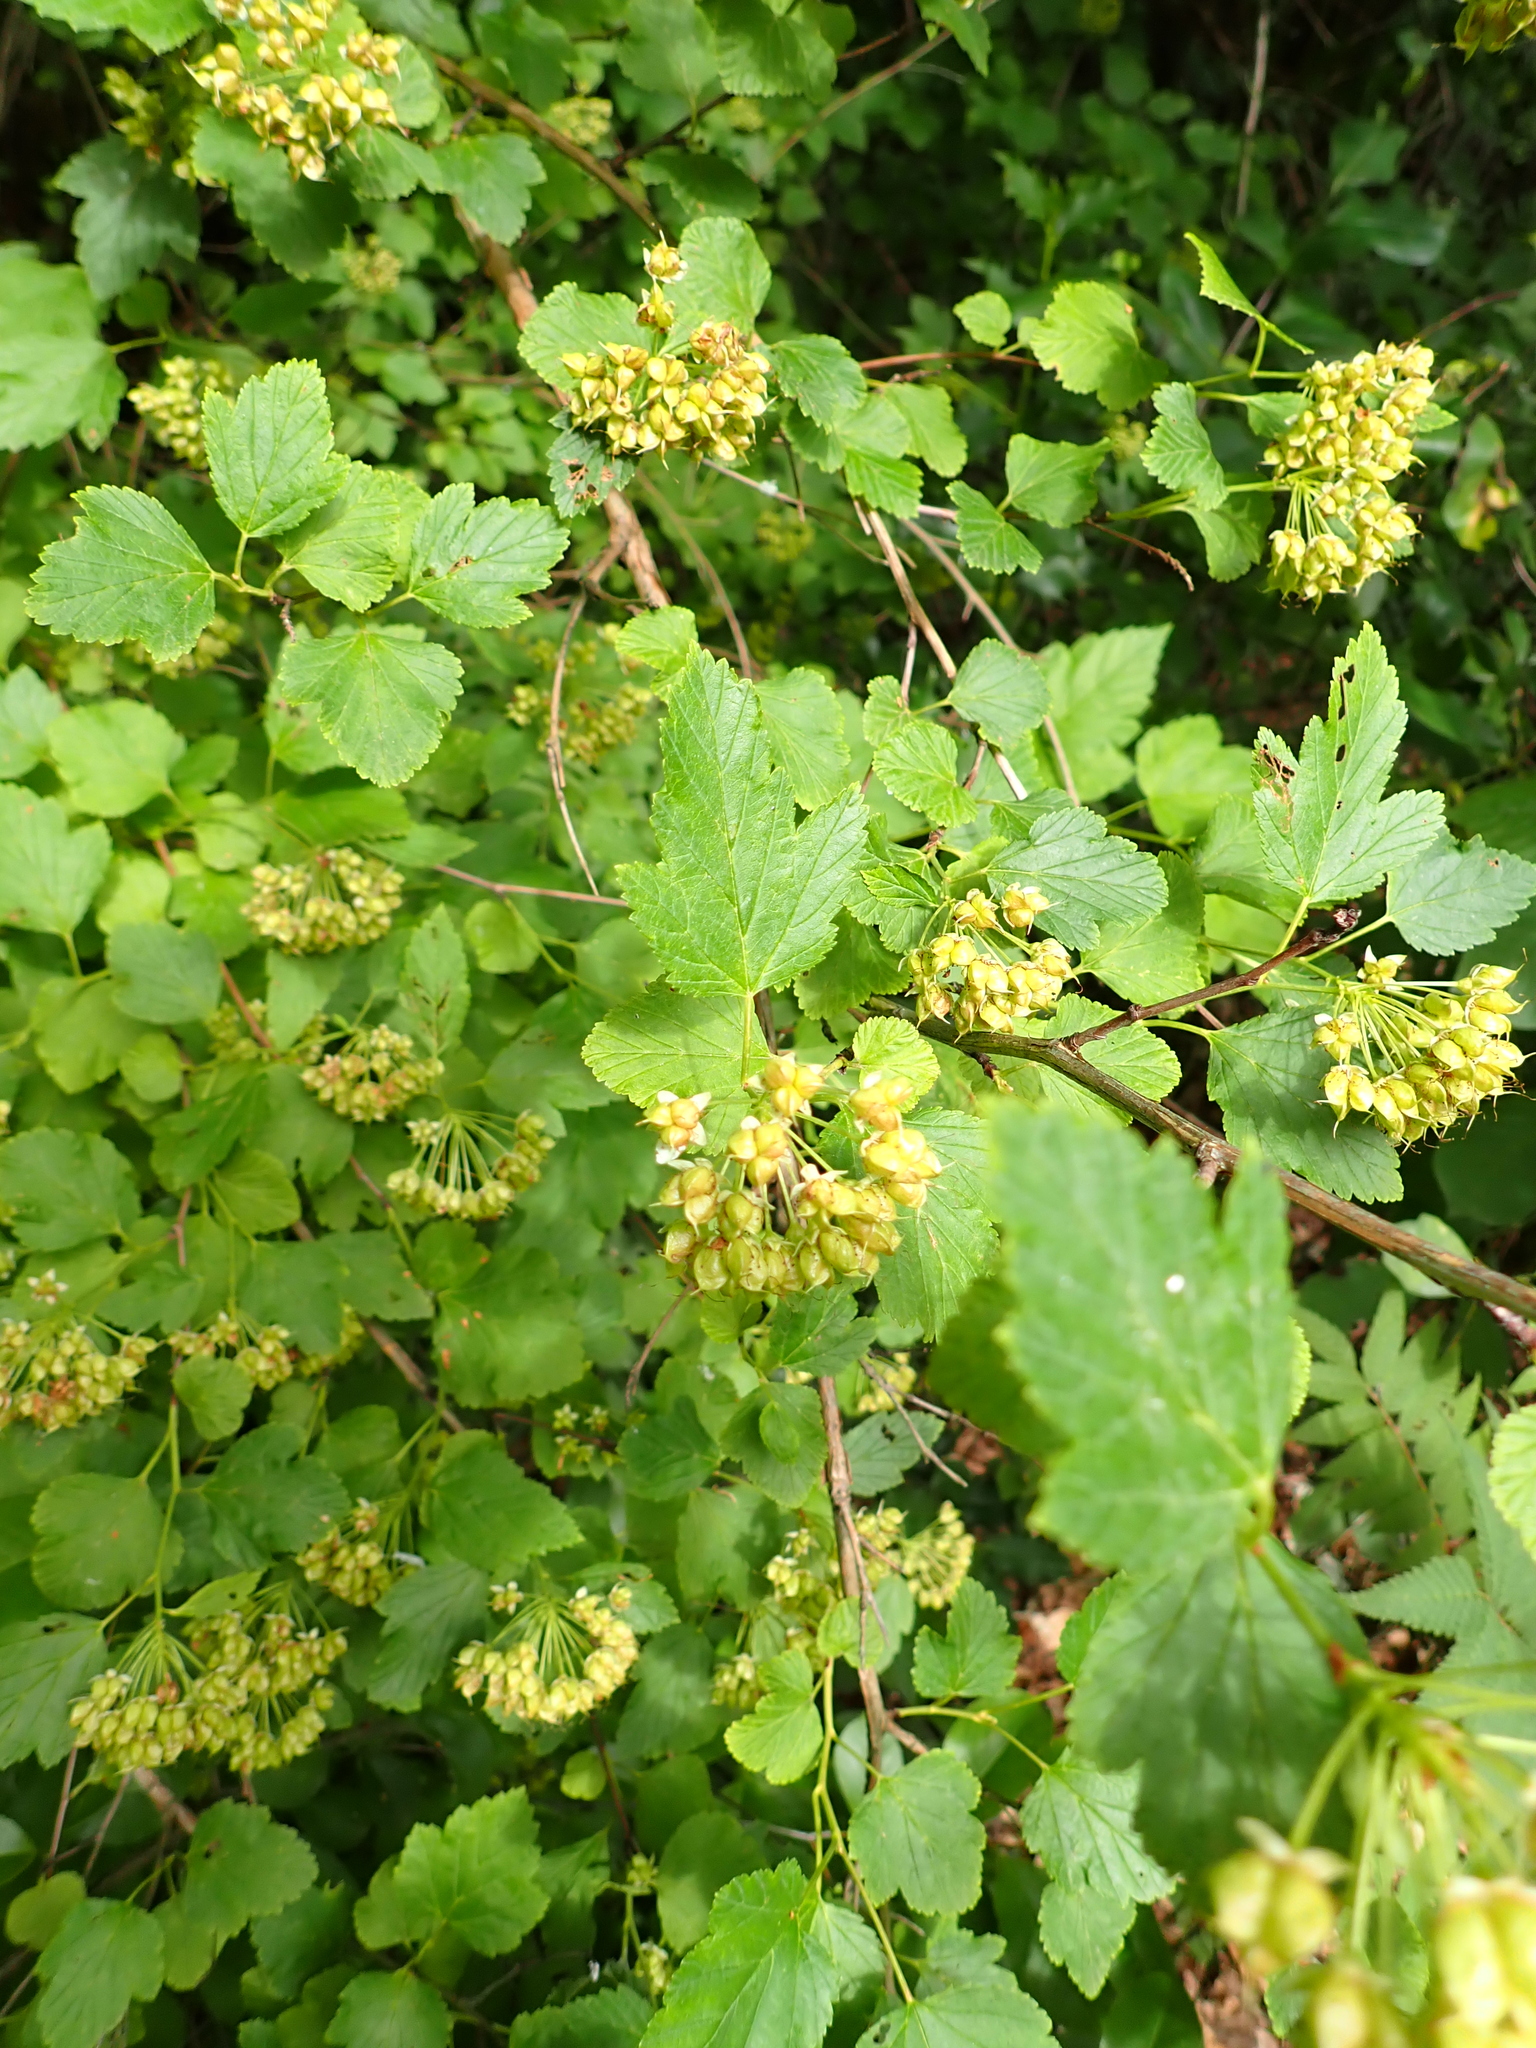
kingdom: Plantae
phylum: Tracheophyta
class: Magnoliopsida
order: Rosales
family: Rosaceae
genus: Physocarpus
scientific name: Physocarpus opulifolius
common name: Ninebark
